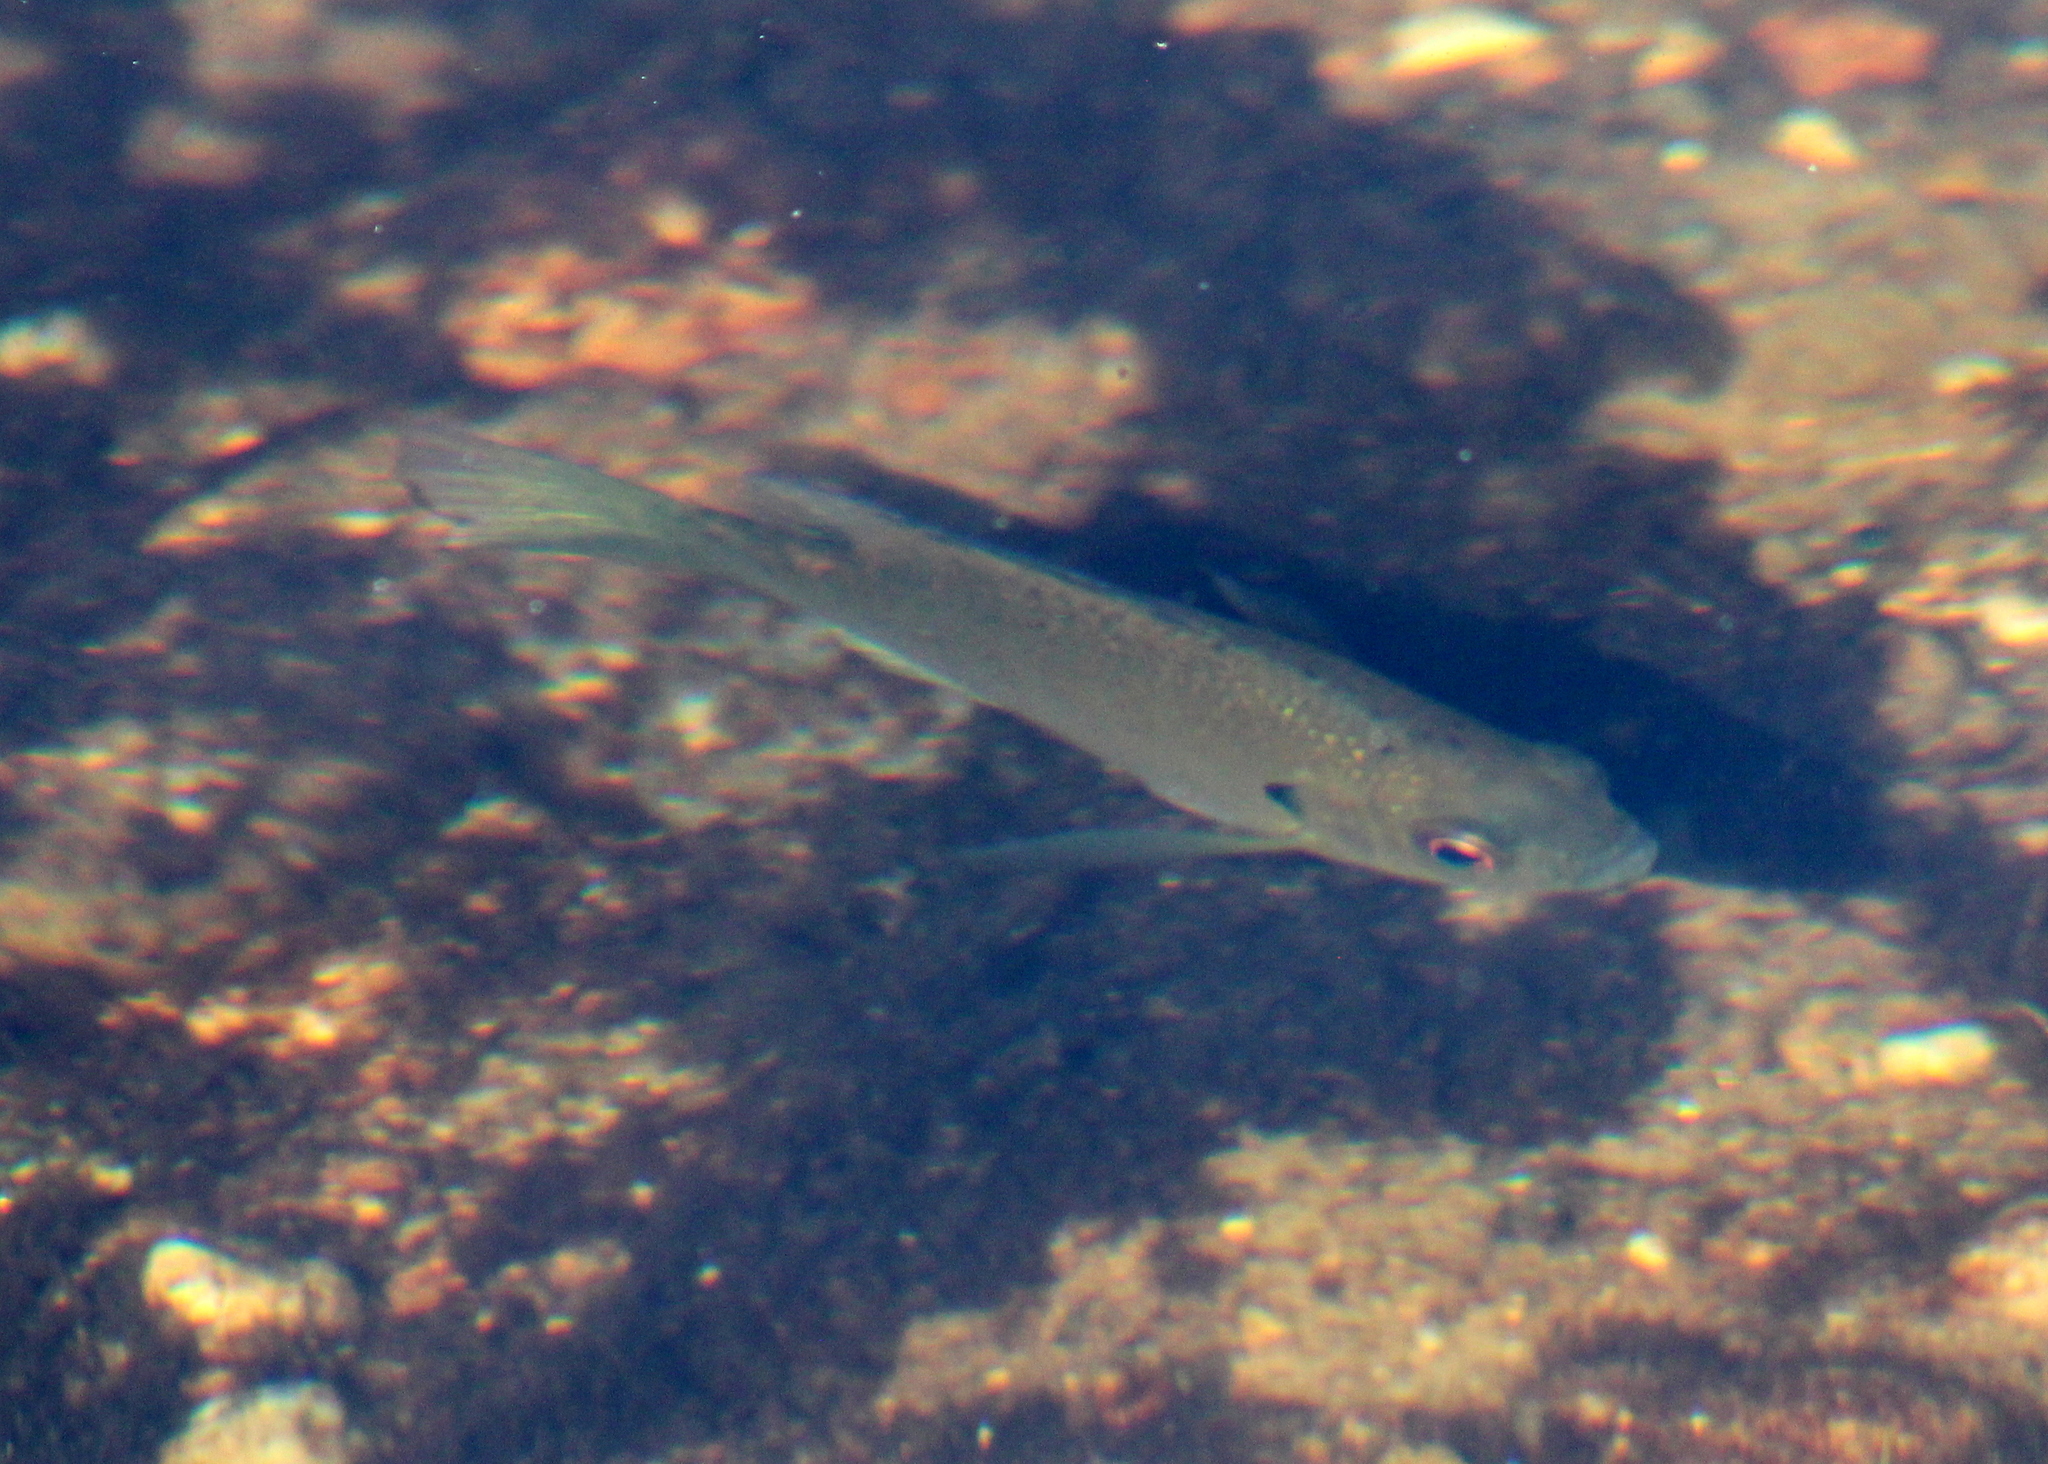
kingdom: Animalia
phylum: Chordata
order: Perciformes
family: Centrarchidae
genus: Lepomis
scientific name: Lepomis macrochirus
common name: Bluegill
